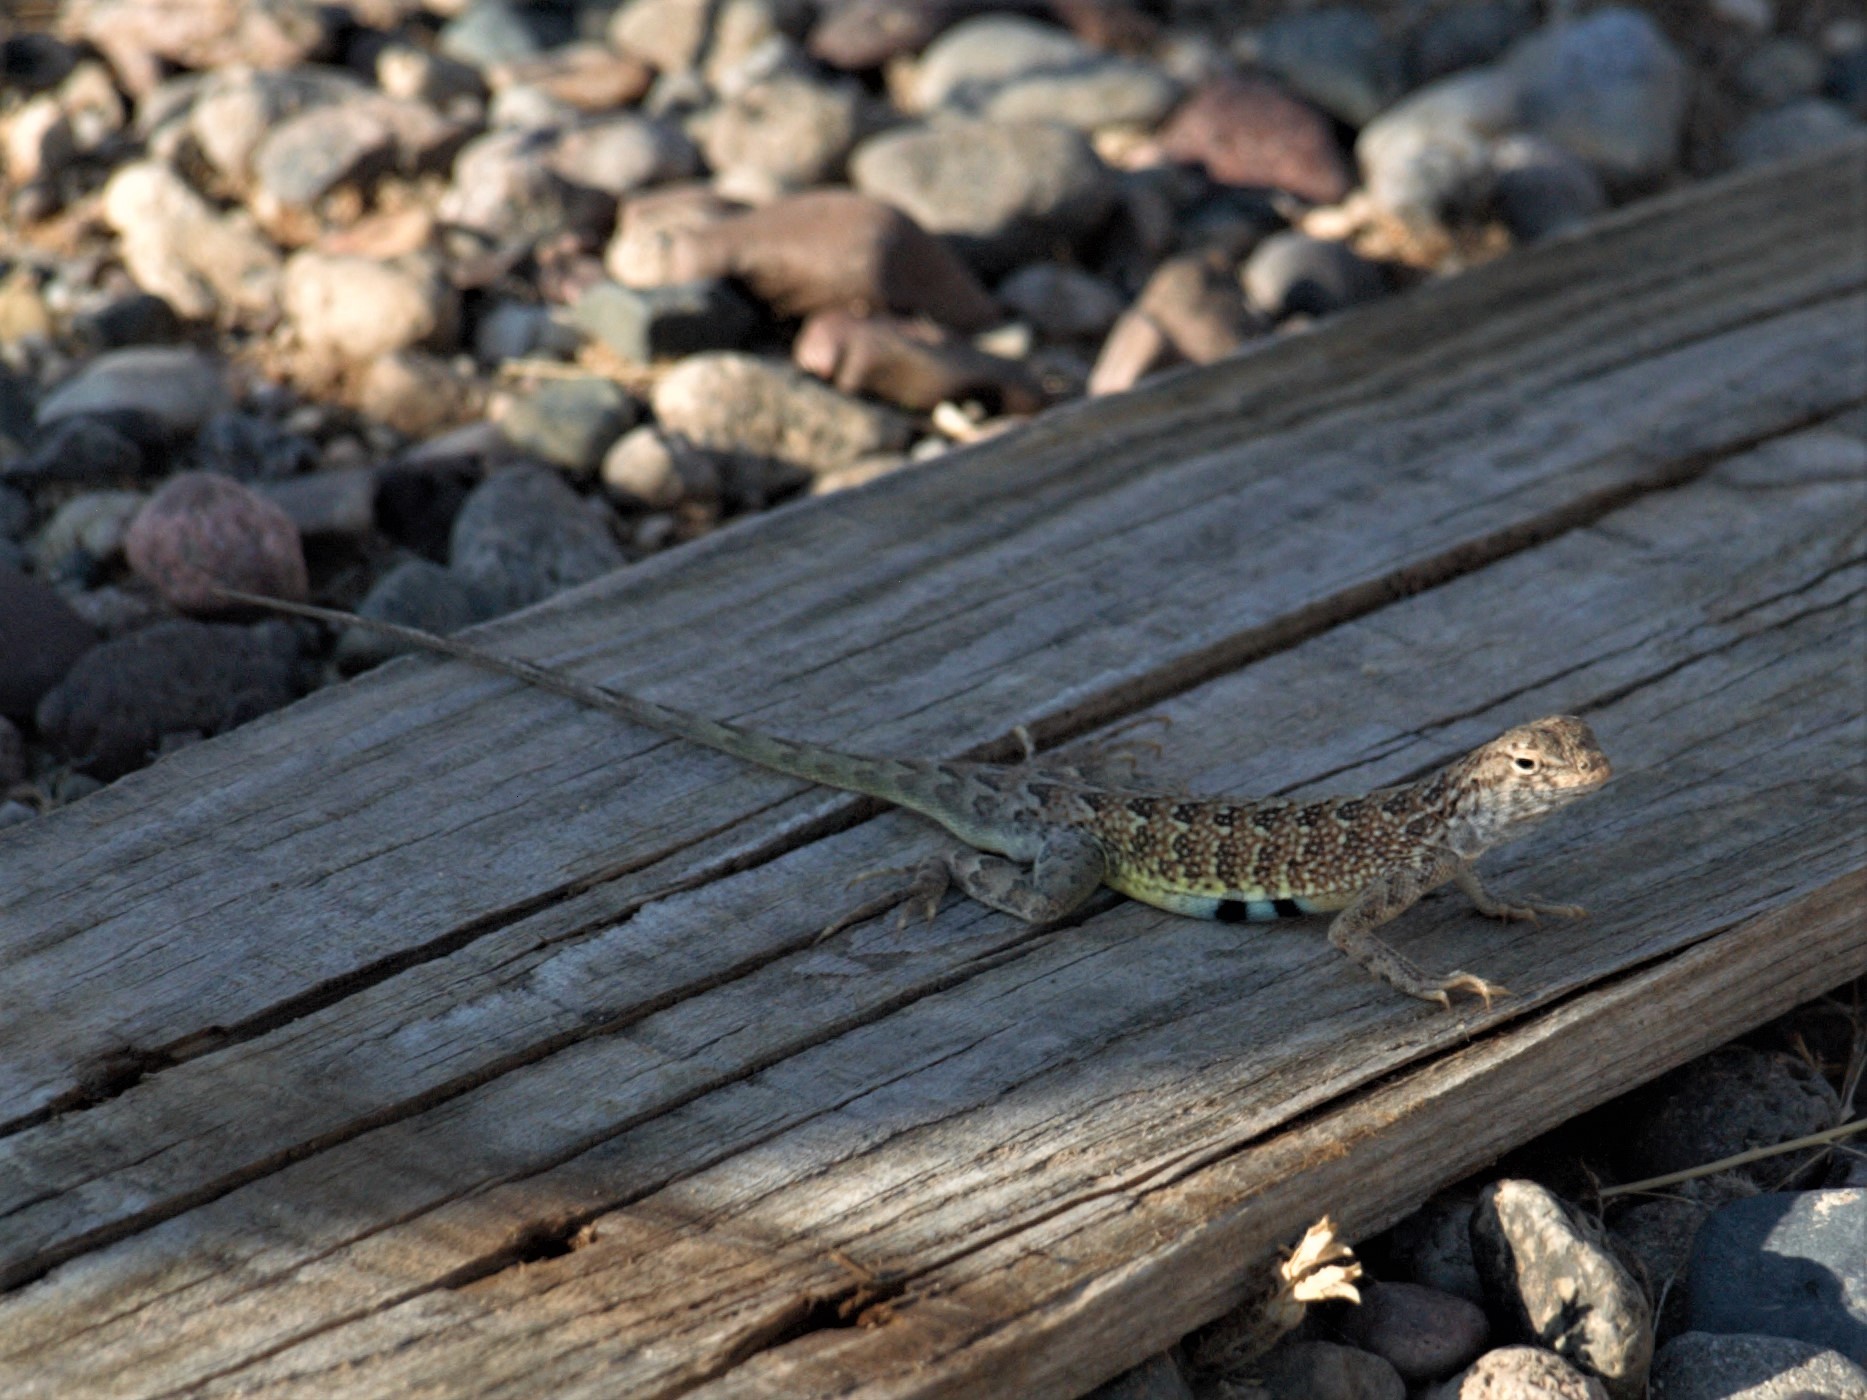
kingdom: Animalia
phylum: Chordata
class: Squamata
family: Phrynosomatidae
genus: Holbrookia
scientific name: Holbrookia elegans
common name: Elegant earless lizard
